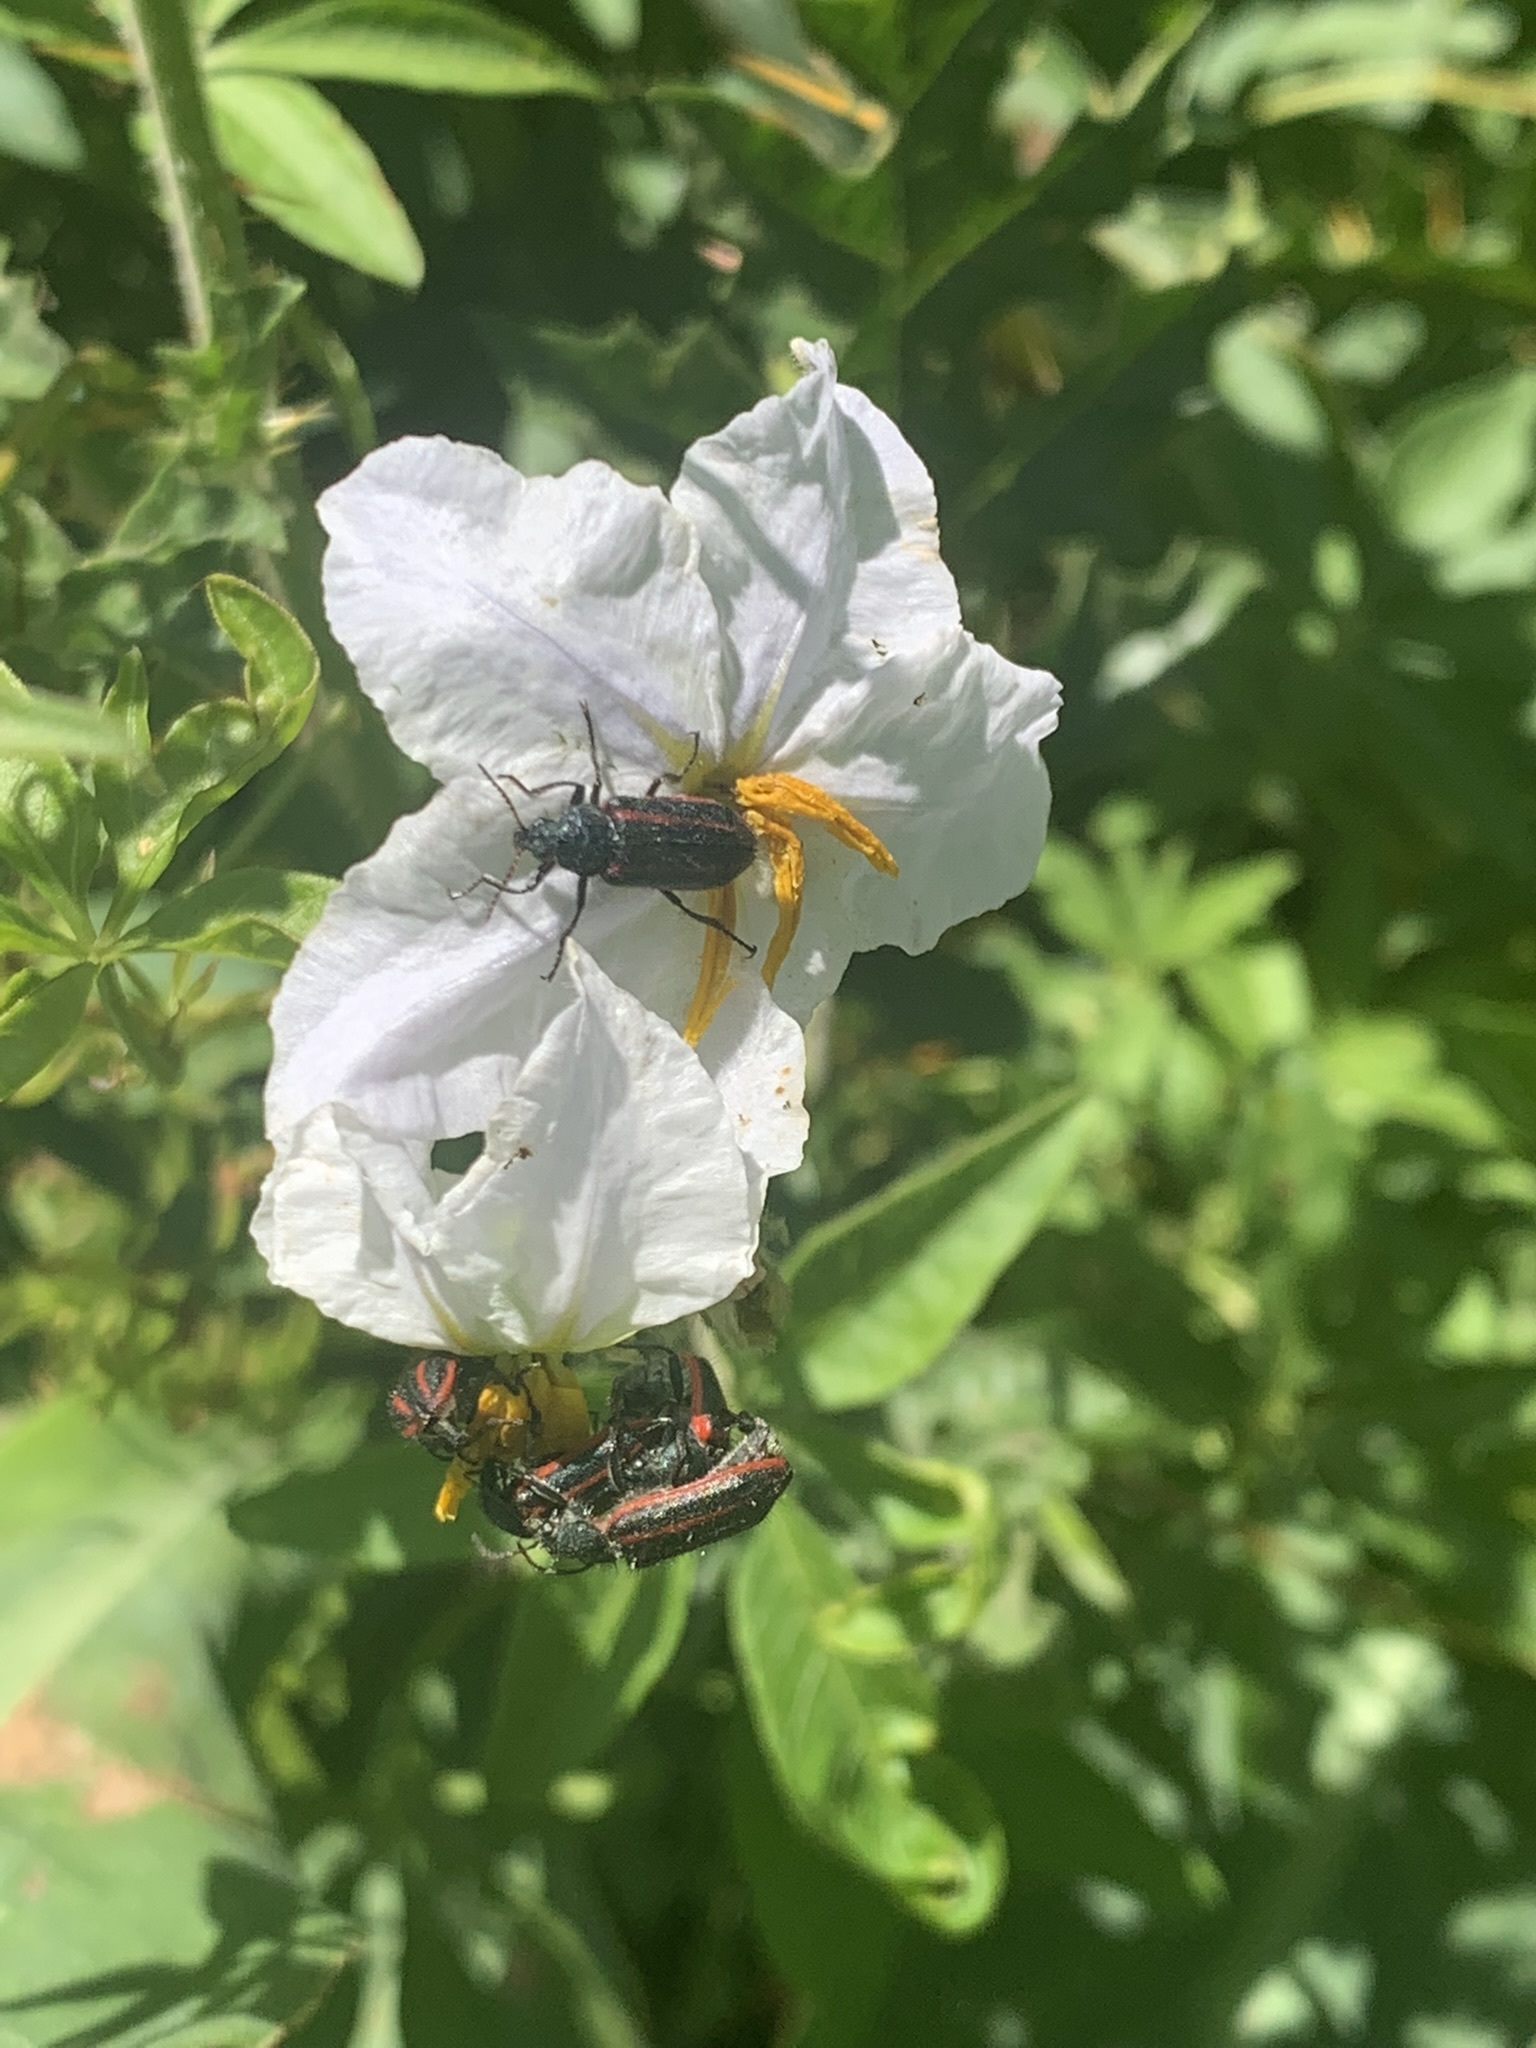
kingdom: Animalia
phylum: Arthropoda
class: Insecta
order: Coleoptera
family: Melyridae
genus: Astylus
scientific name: Astylus
